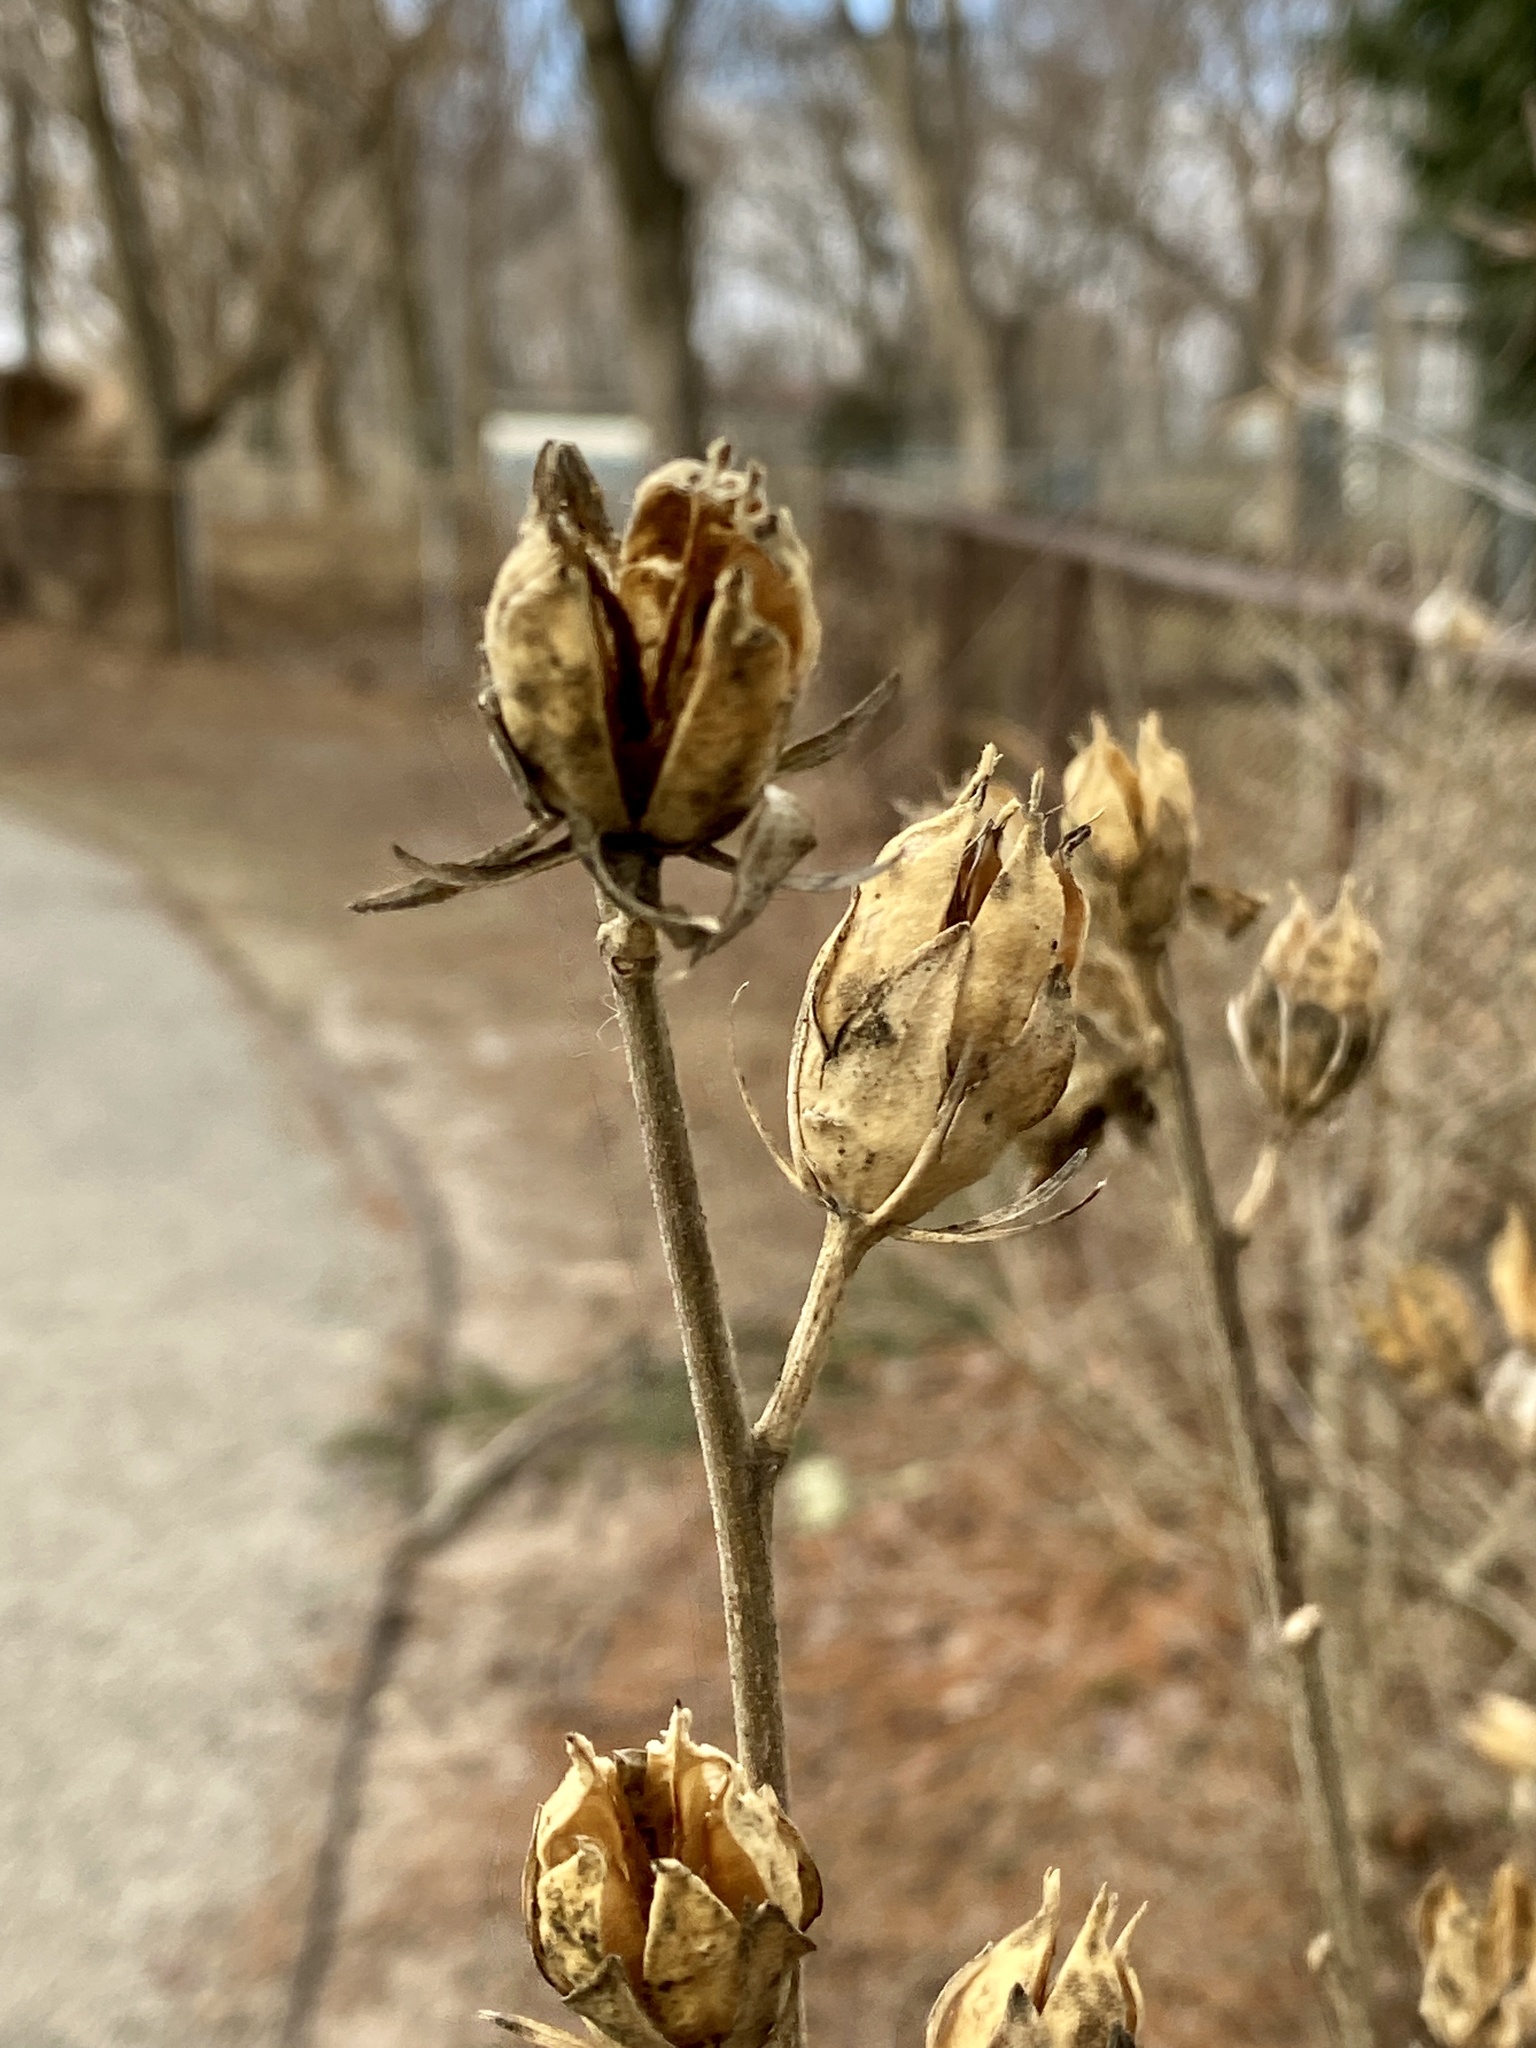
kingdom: Plantae
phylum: Tracheophyta
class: Magnoliopsida
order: Malvales
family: Malvaceae
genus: Hibiscus
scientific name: Hibiscus syriacus
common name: Syrian ketmia
